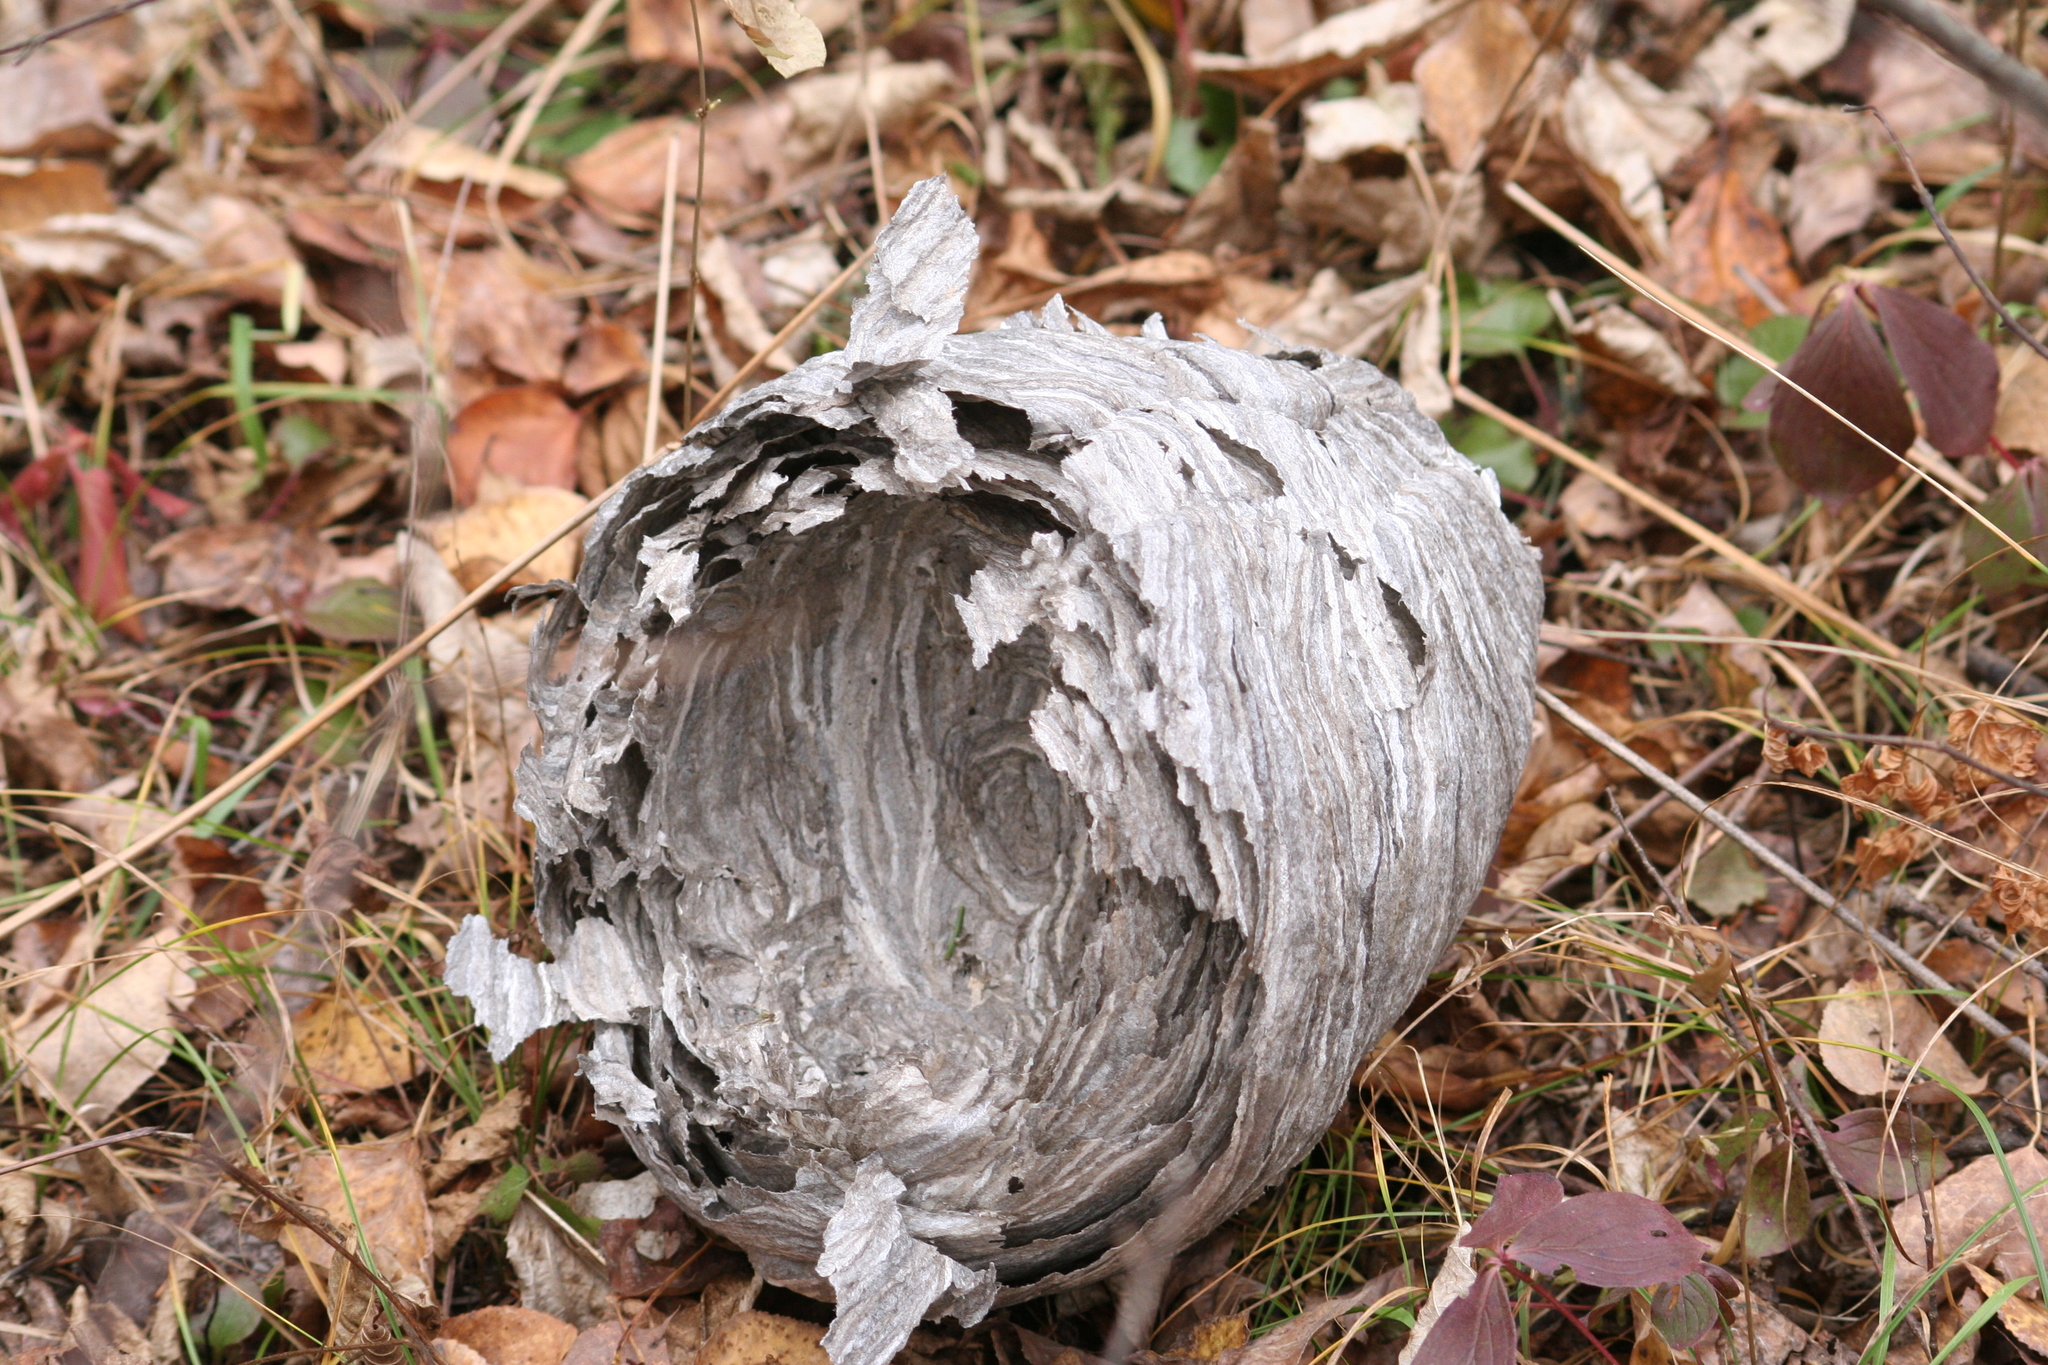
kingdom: Animalia
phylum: Arthropoda
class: Insecta
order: Hymenoptera
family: Vespidae
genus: Dolichovespula
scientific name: Dolichovespula
